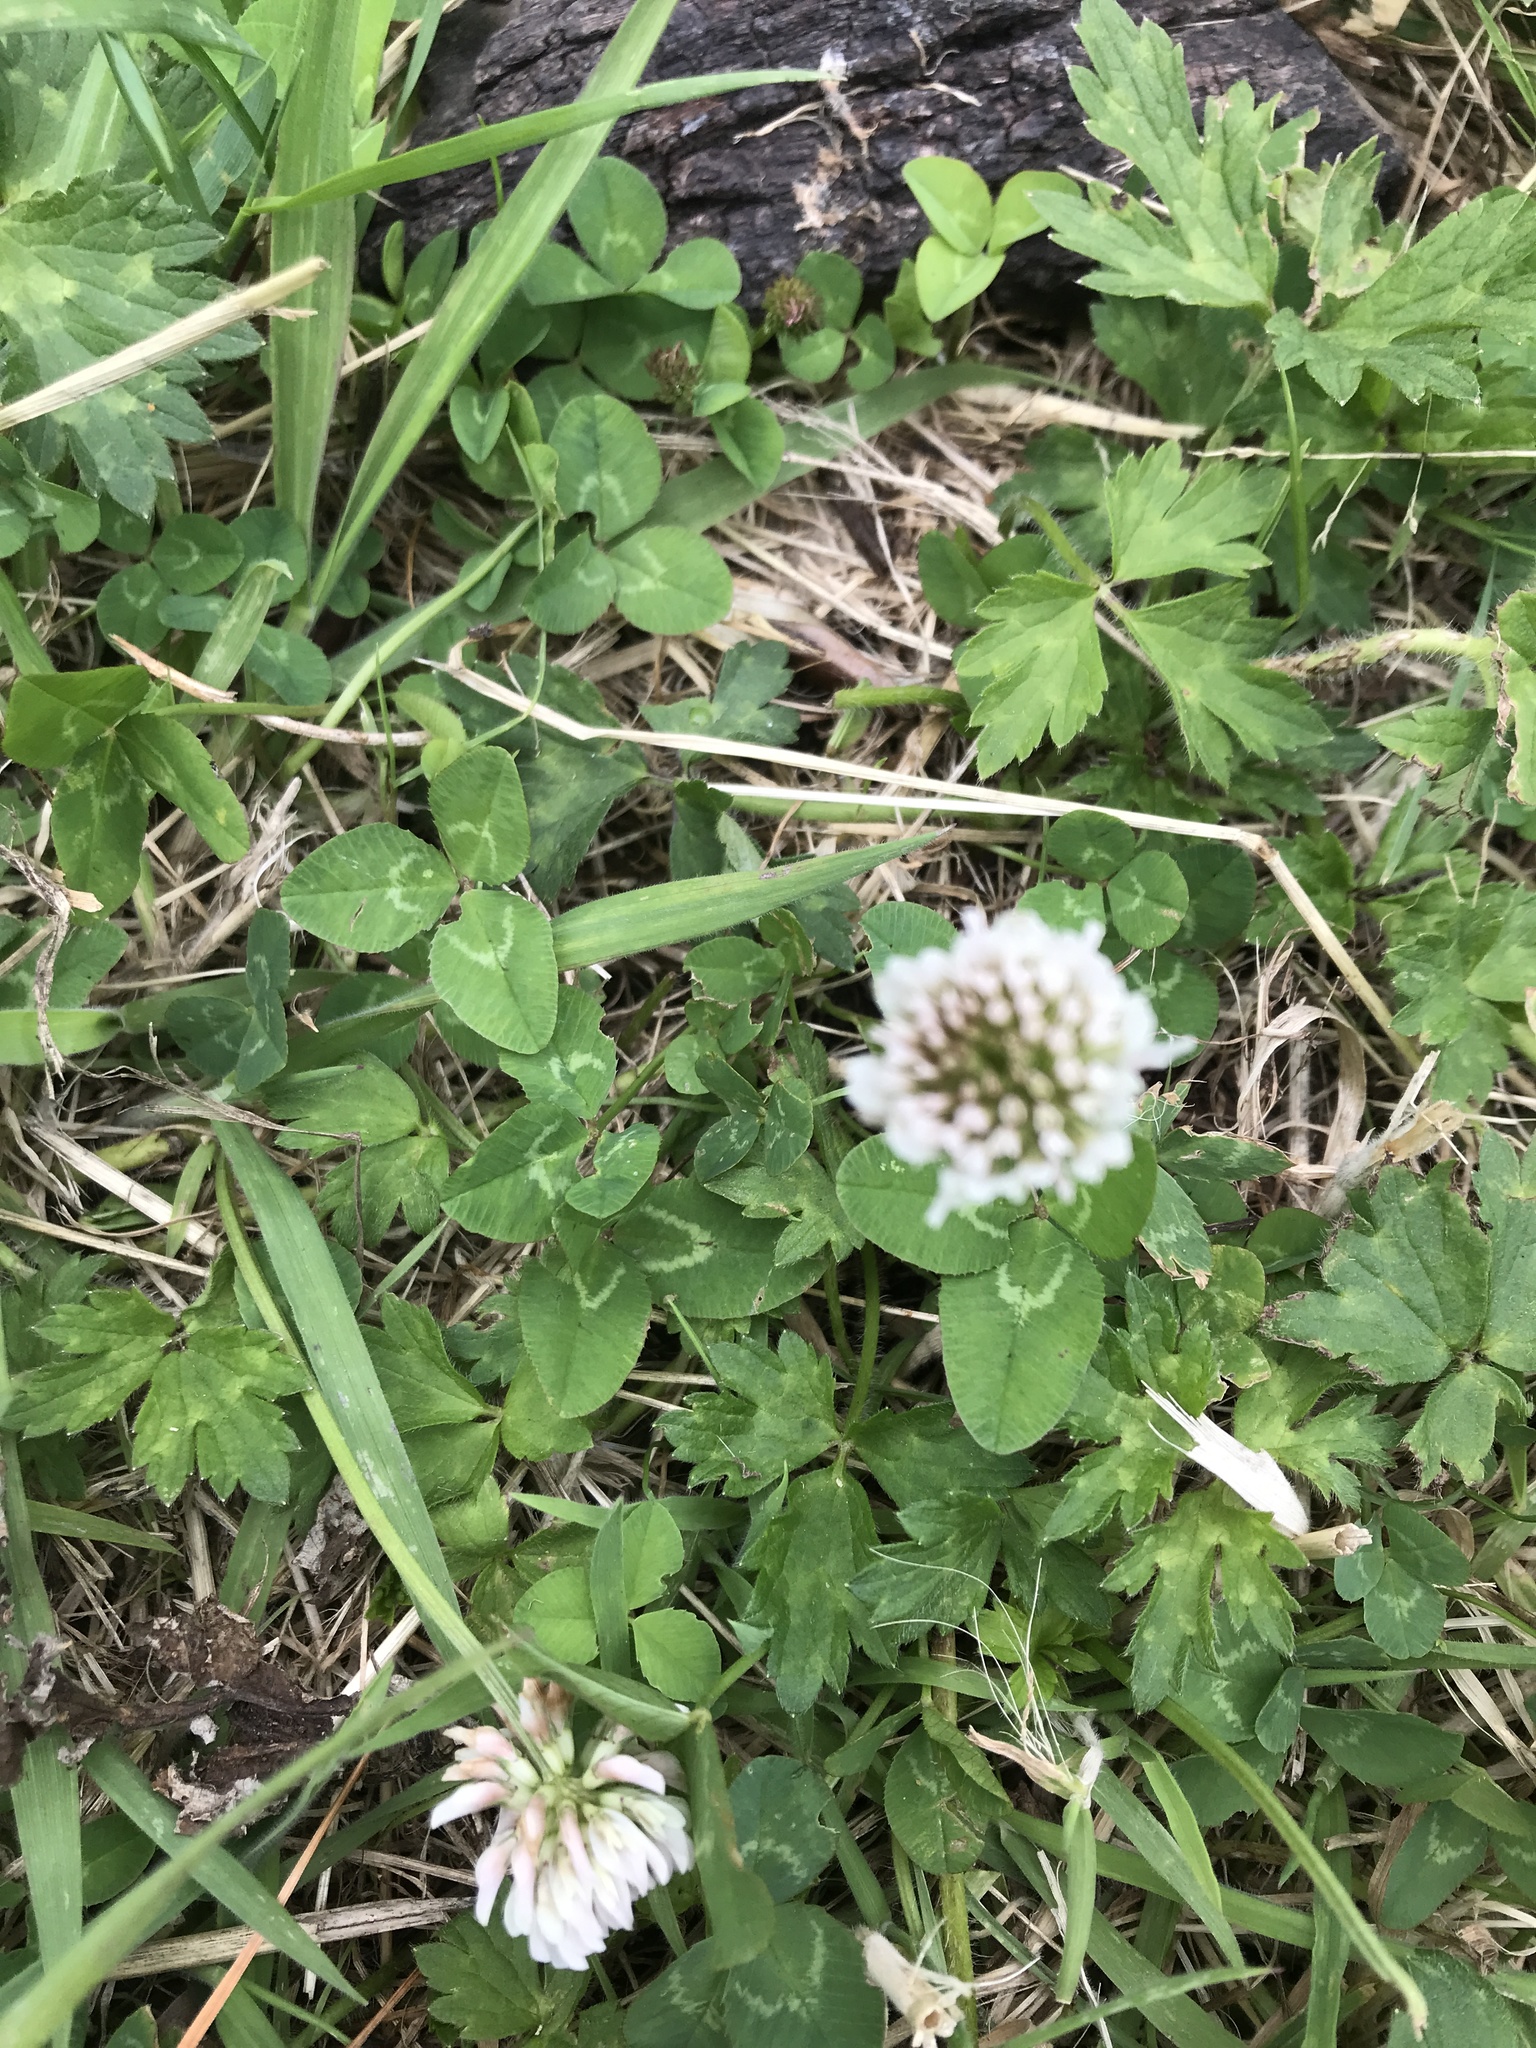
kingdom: Plantae
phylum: Tracheophyta
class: Magnoliopsida
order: Fabales
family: Fabaceae
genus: Trifolium
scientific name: Trifolium repens
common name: White clover
